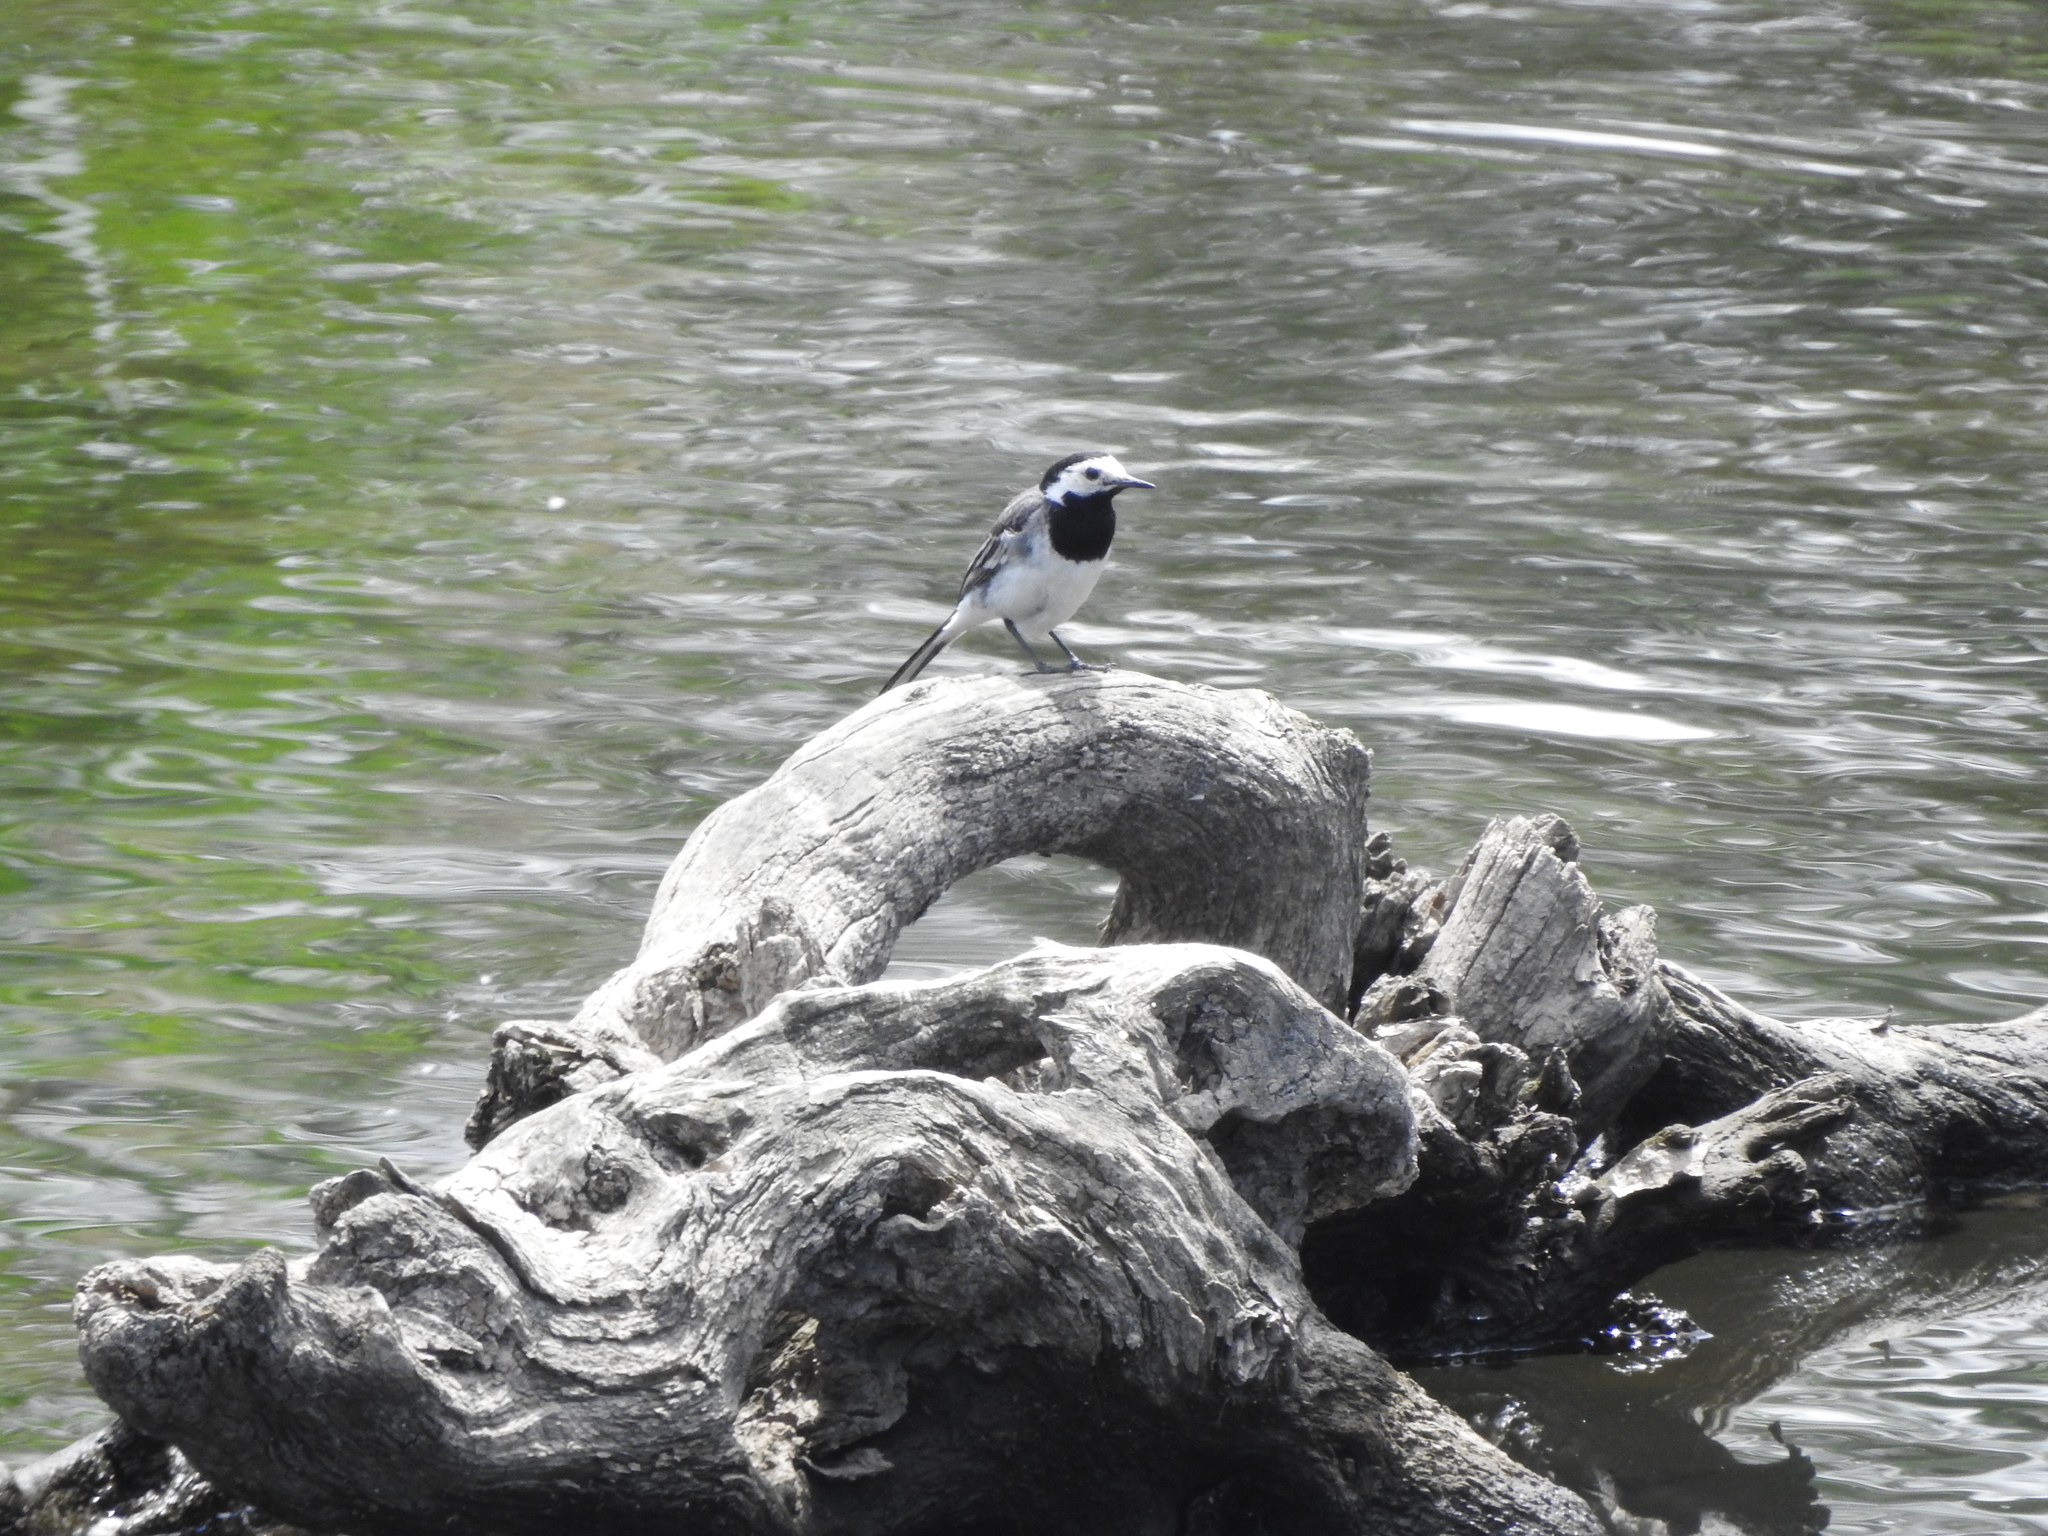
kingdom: Animalia
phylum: Chordata
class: Aves
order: Passeriformes
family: Motacillidae
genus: Motacilla
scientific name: Motacilla alba
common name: White wagtail
